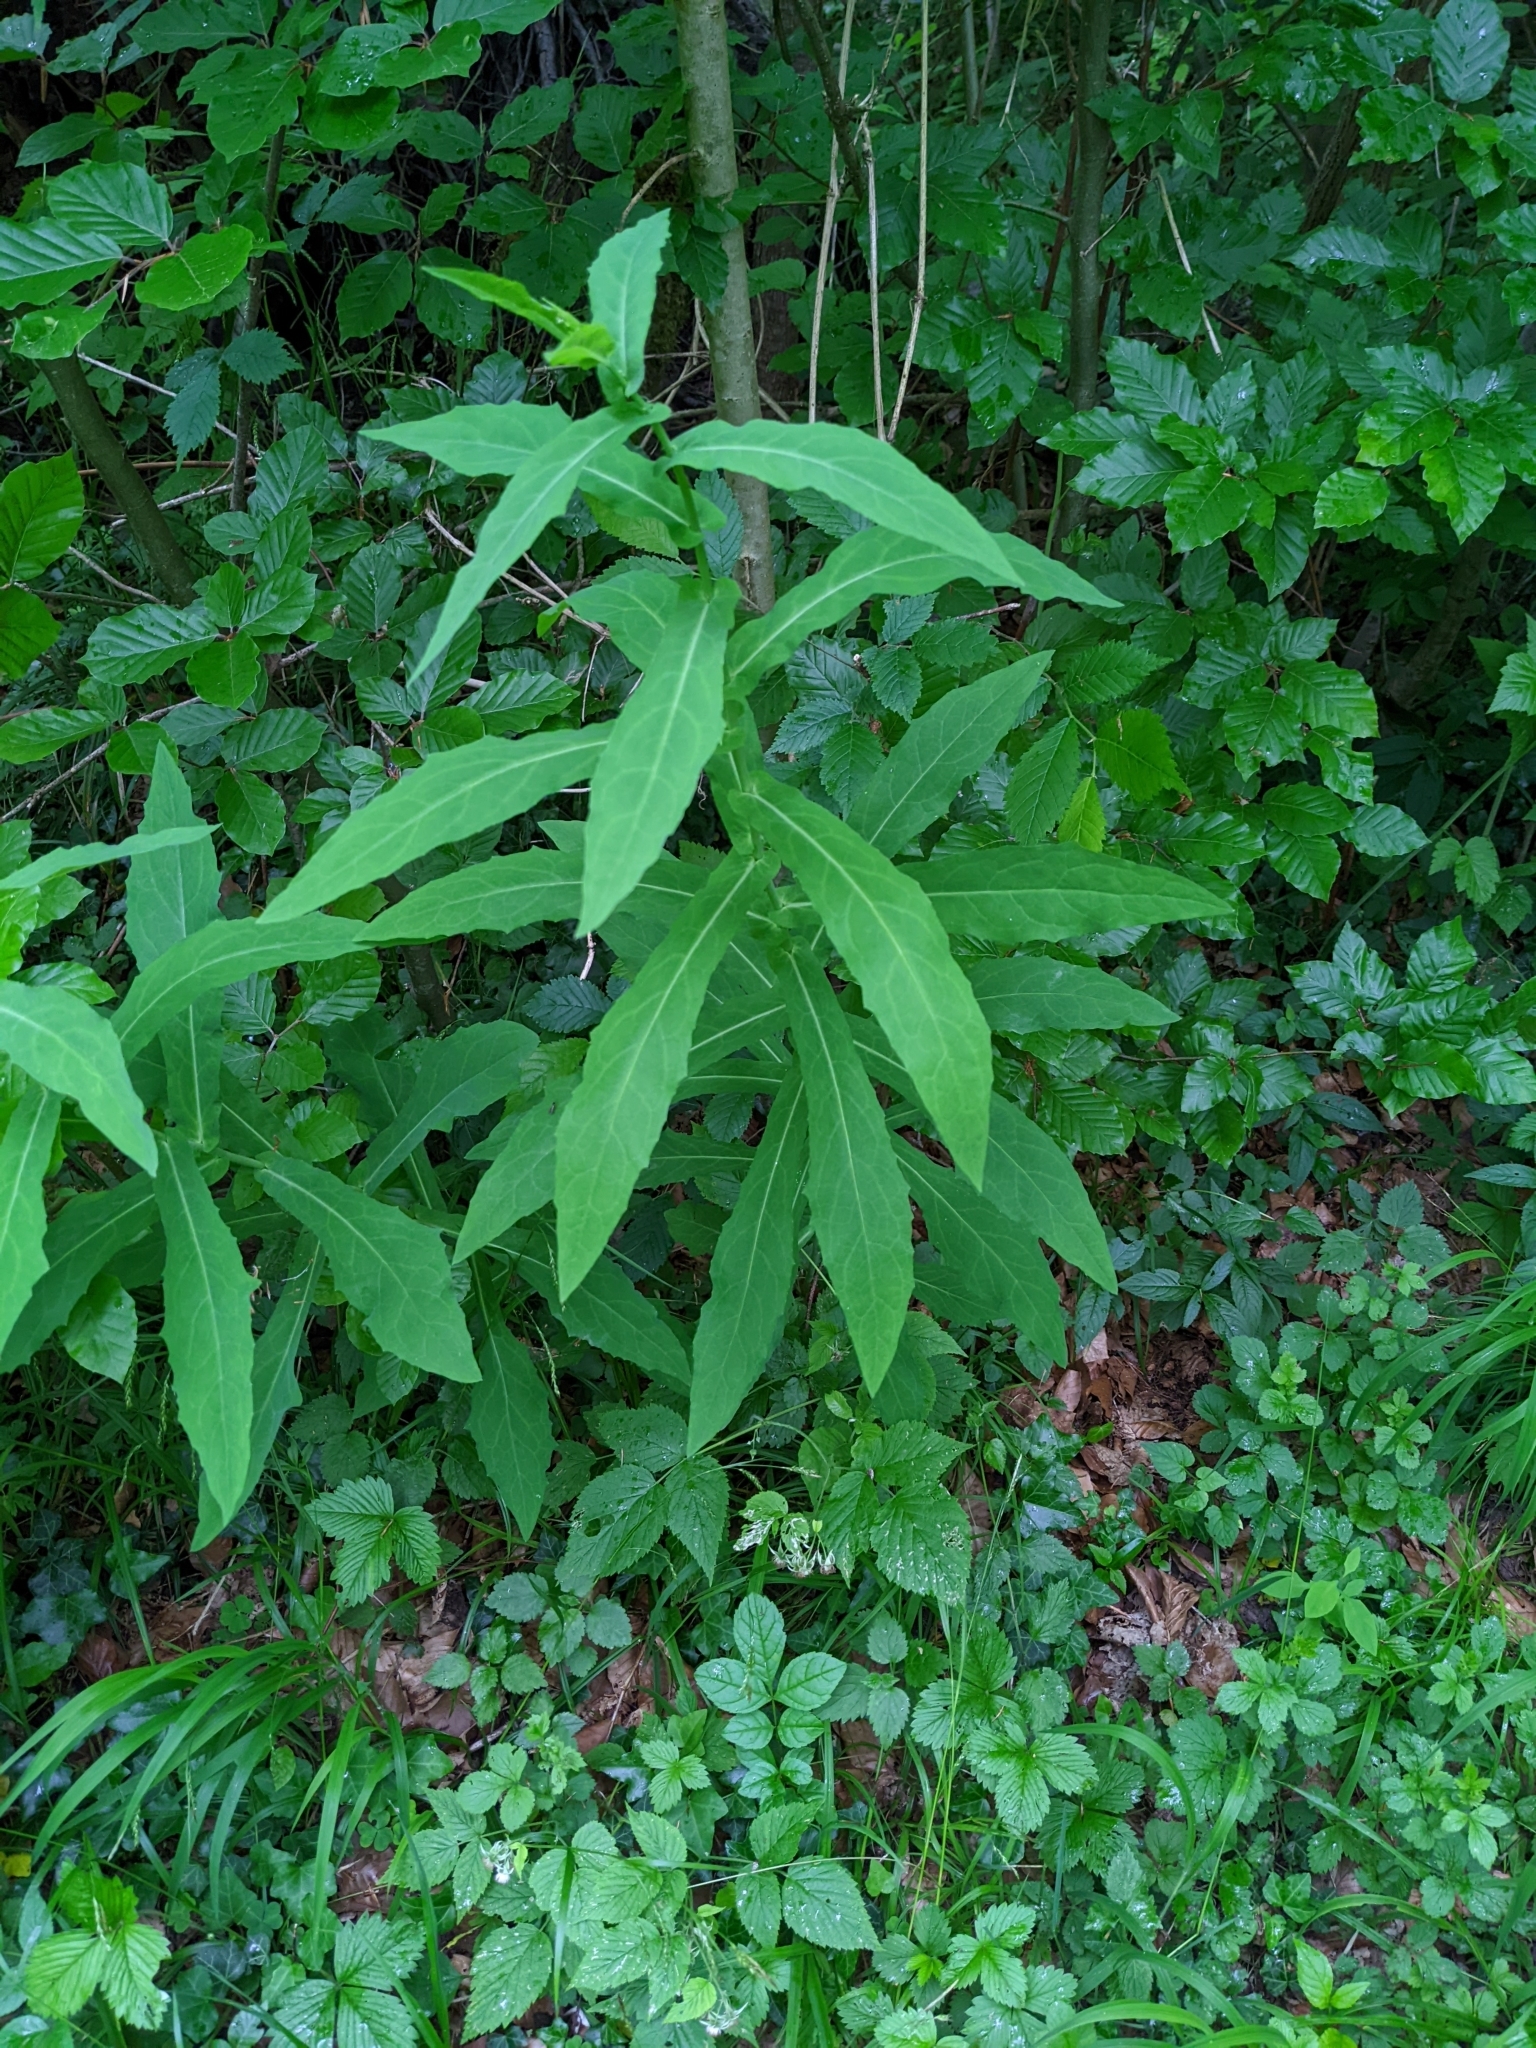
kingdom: Plantae
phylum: Tracheophyta
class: Magnoliopsida
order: Asterales
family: Asteraceae
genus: Prenanthes
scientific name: Prenanthes purpurea
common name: Purple lettuce
